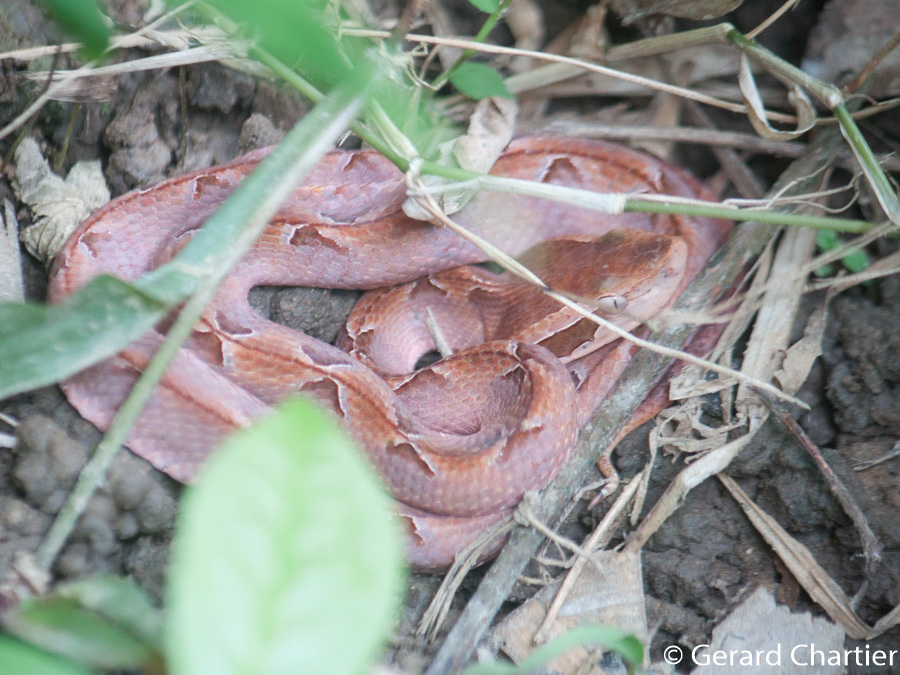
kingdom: Animalia
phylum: Chordata
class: Squamata
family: Viperidae
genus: Calloselasma
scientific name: Calloselasma rhodostoma
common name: Malayan pit viper
